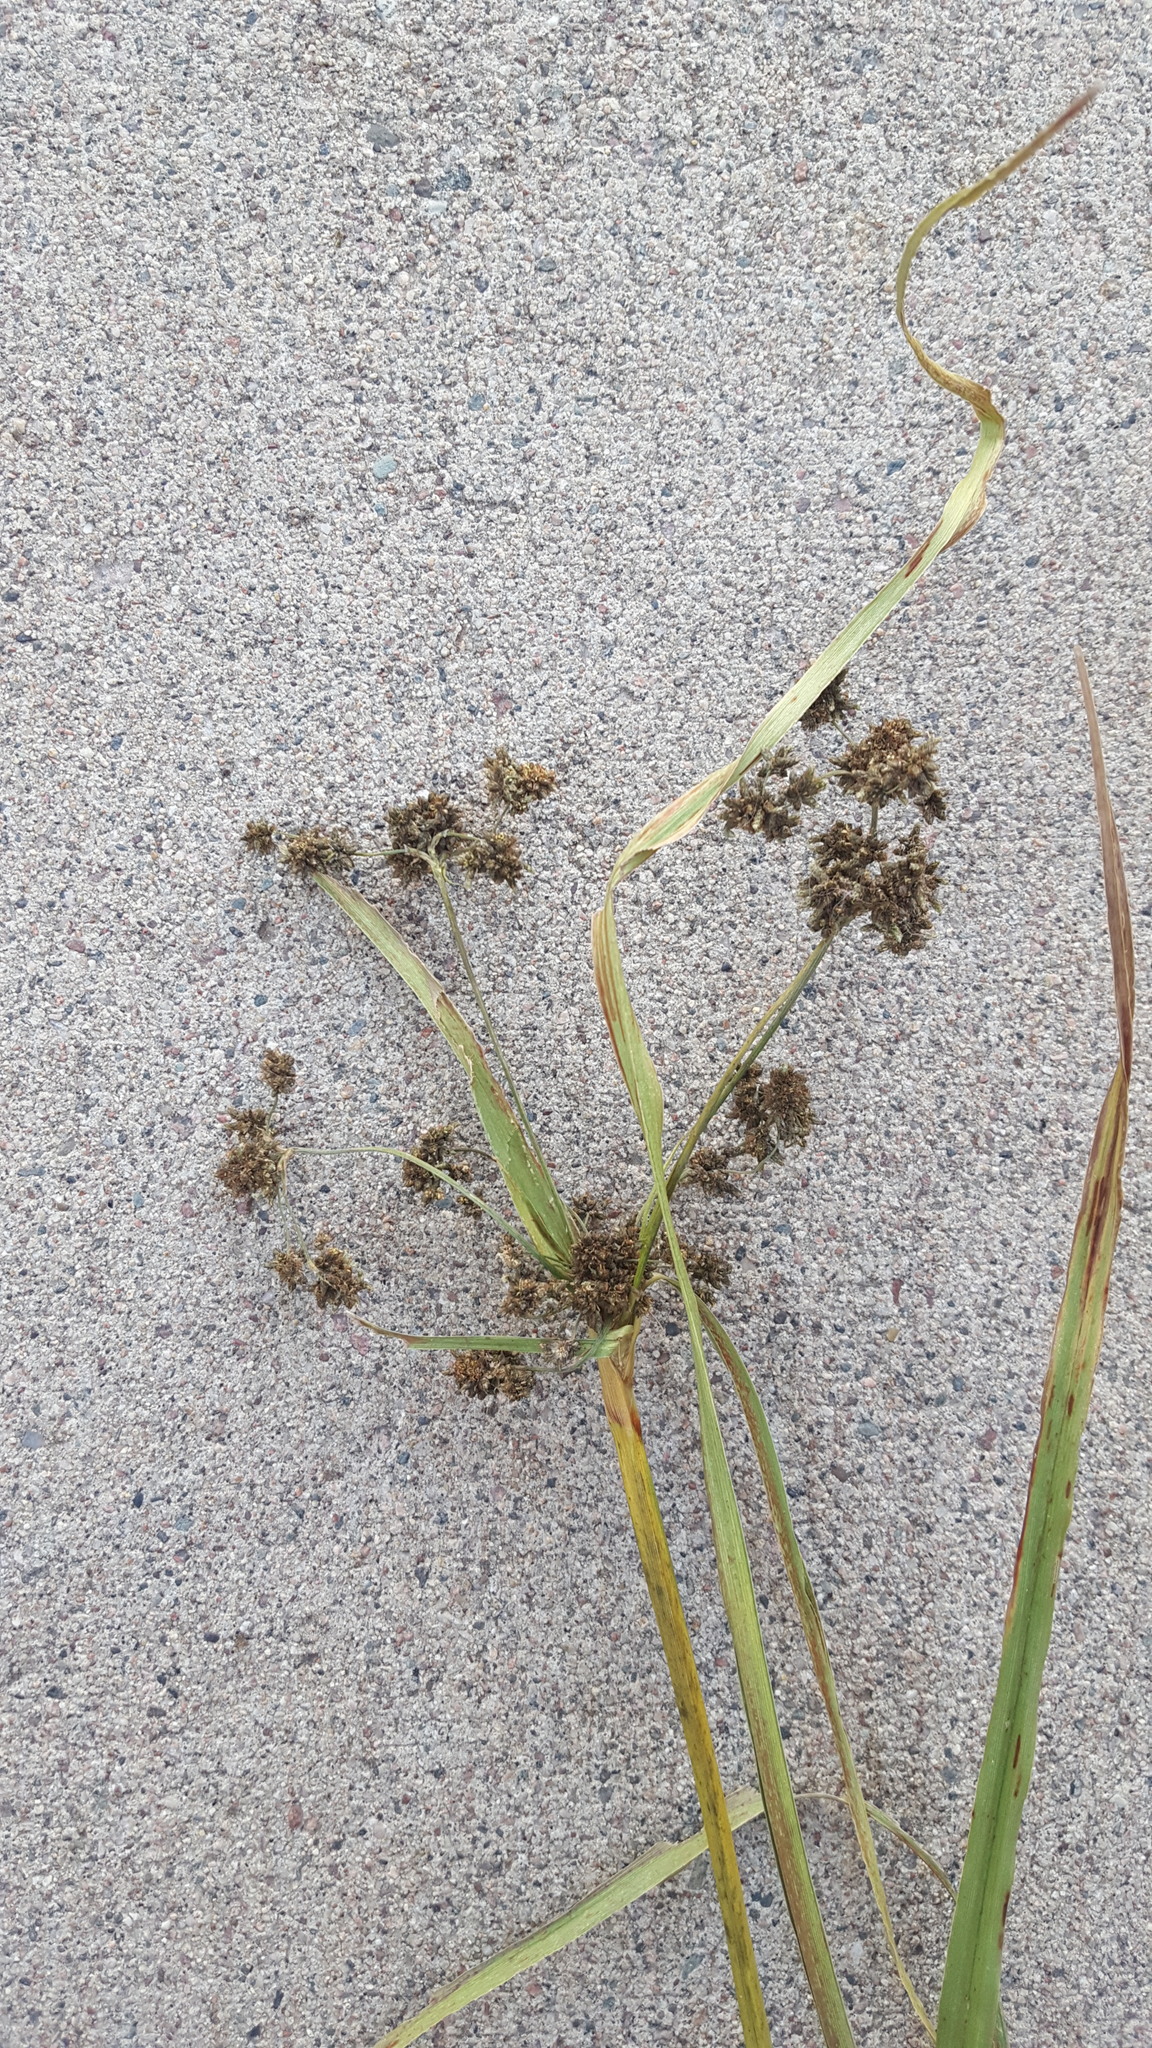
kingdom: Plantae
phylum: Tracheophyta
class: Liliopsida
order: Poales
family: Cyperaceae
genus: Scirpus
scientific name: Scirpus microcarpus
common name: Panicled bulrush
